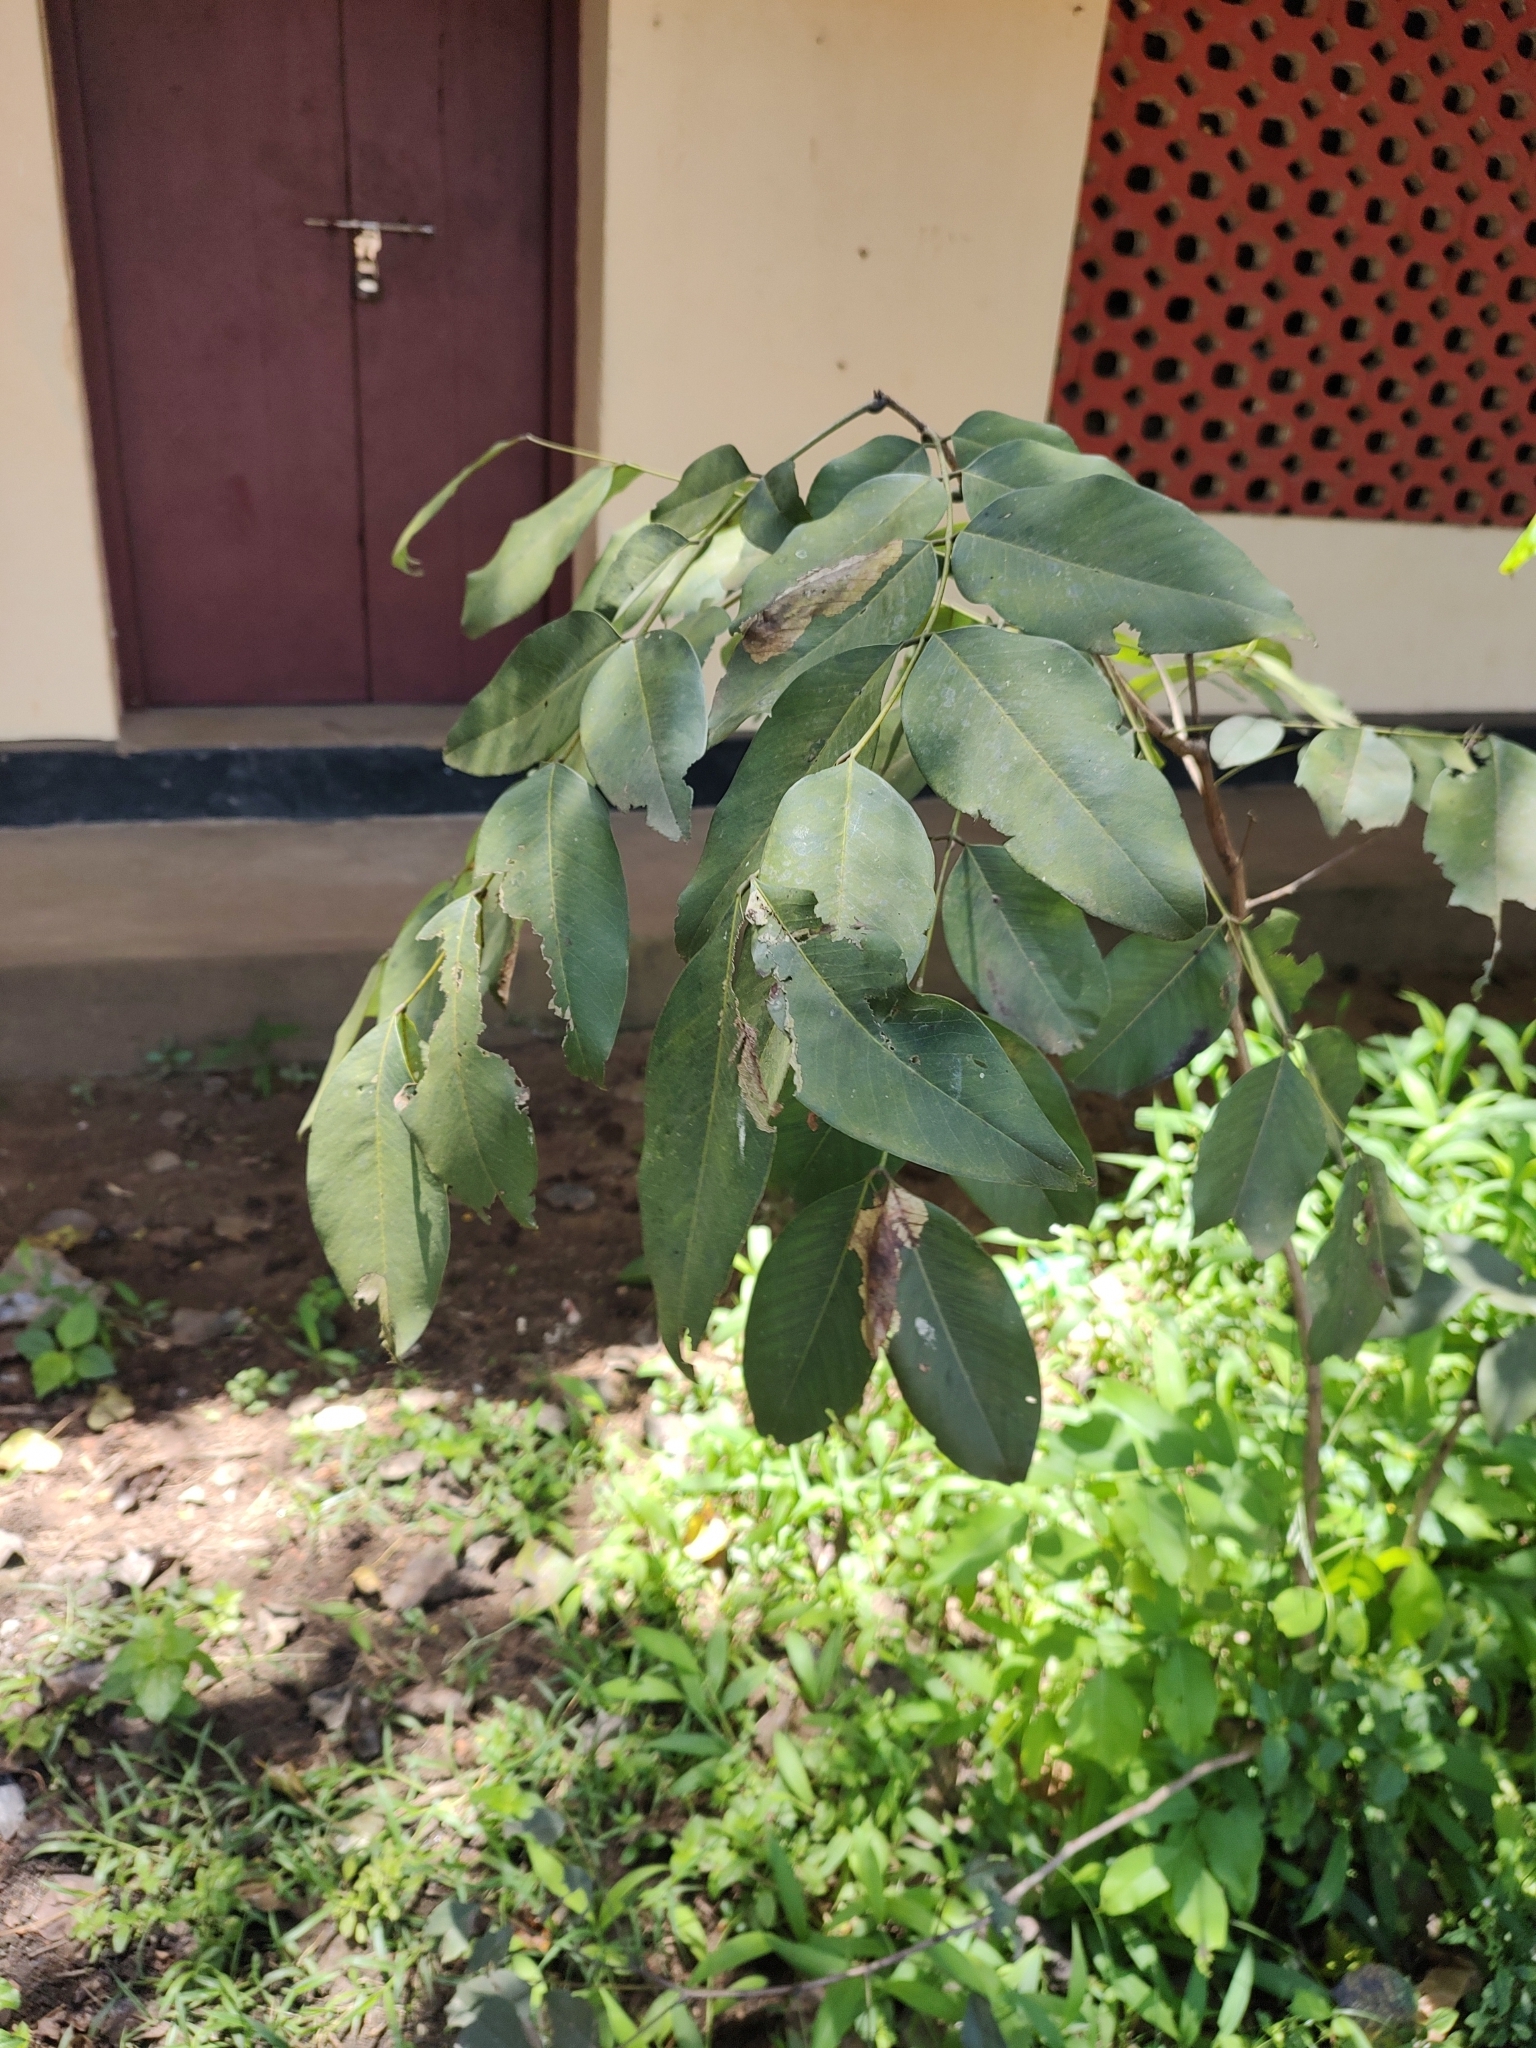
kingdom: Plantae
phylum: Tracheophyta
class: Magnoliopsida
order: Fabales
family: Fabaceae
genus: Cassia
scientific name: Cassia fistula
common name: Golden shower
